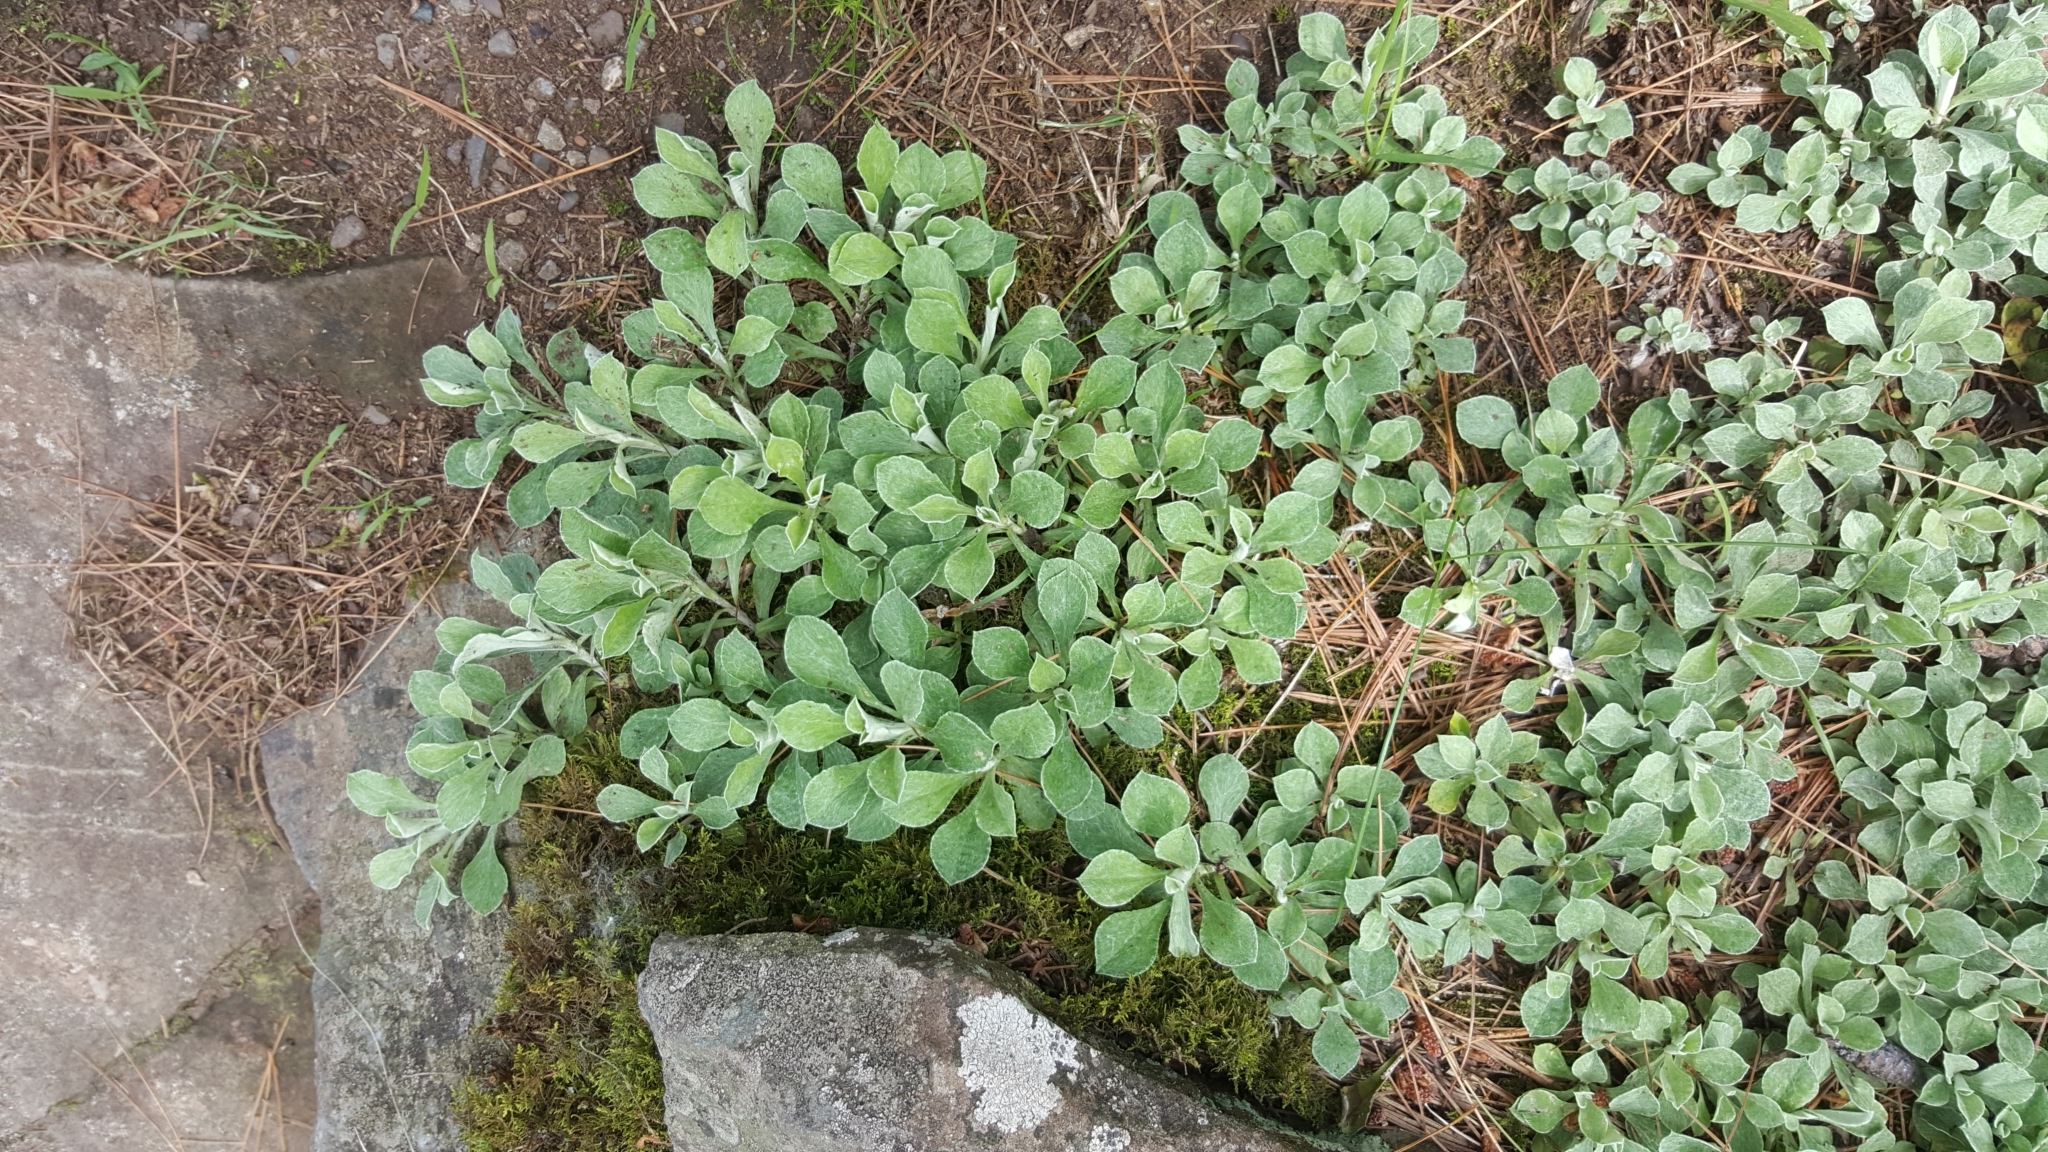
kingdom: Plantae
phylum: Tracheophyta
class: Magnoliopsida
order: Asterales
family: Asteraceae
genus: Antennaria
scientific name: Antennaria howellii
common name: Howell's pussytoes
